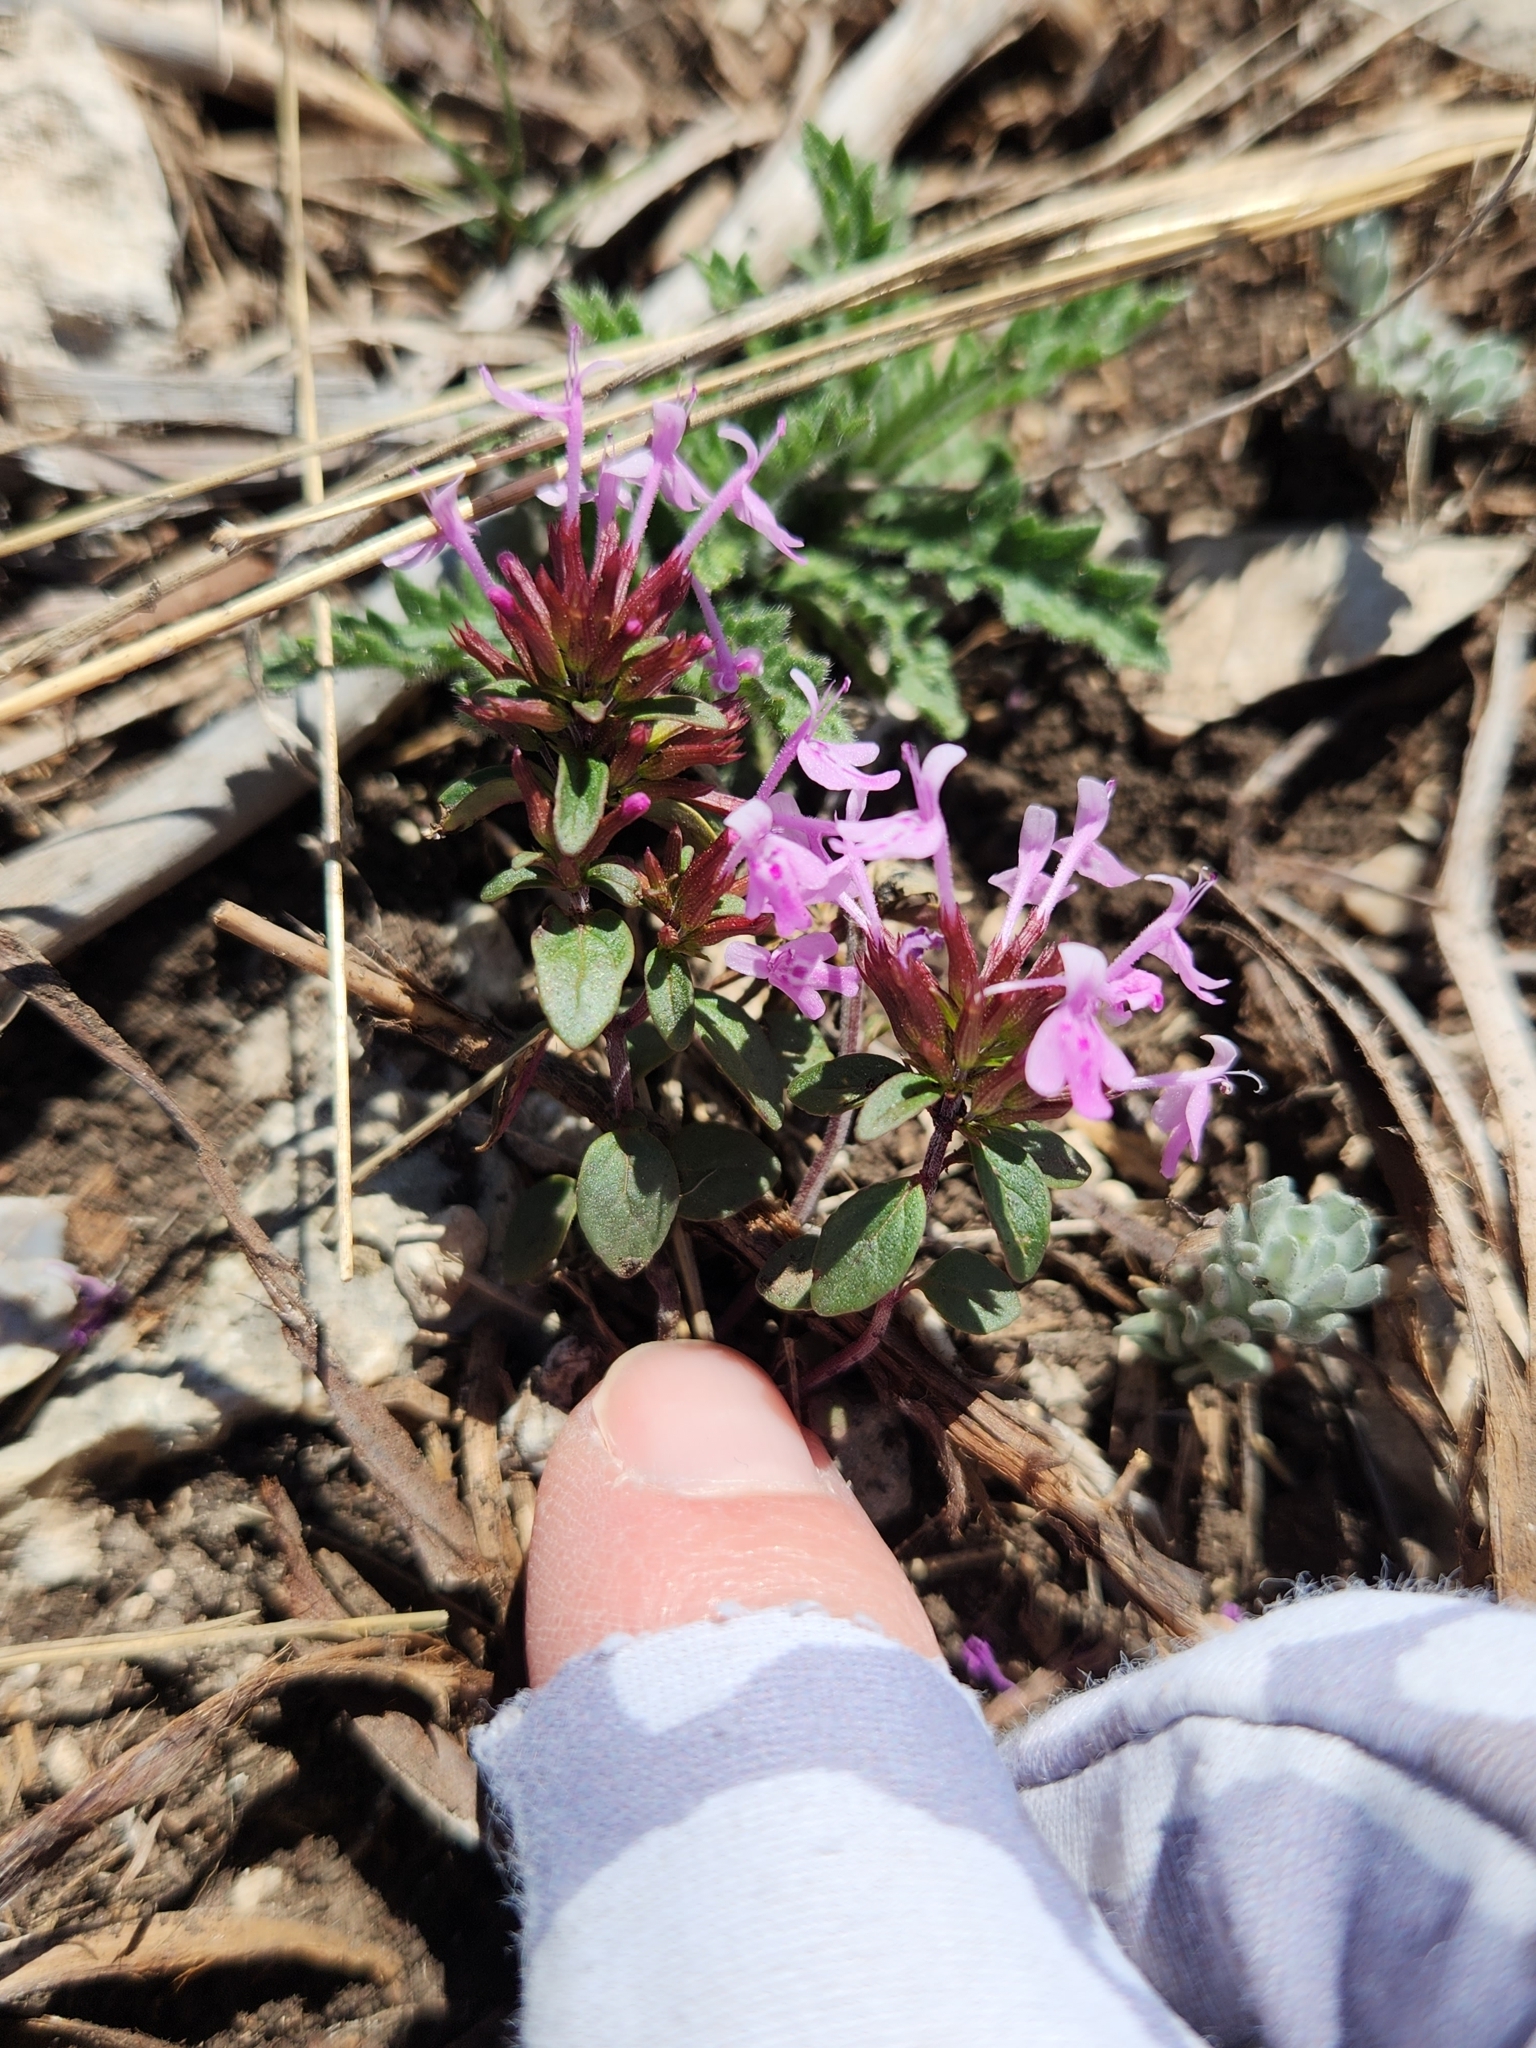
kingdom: Plantae
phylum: Tracheophyta
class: Magnoliopsida
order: Lamiales
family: Lamiaceae
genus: Hedeoma
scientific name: Hedeoma acinoides
